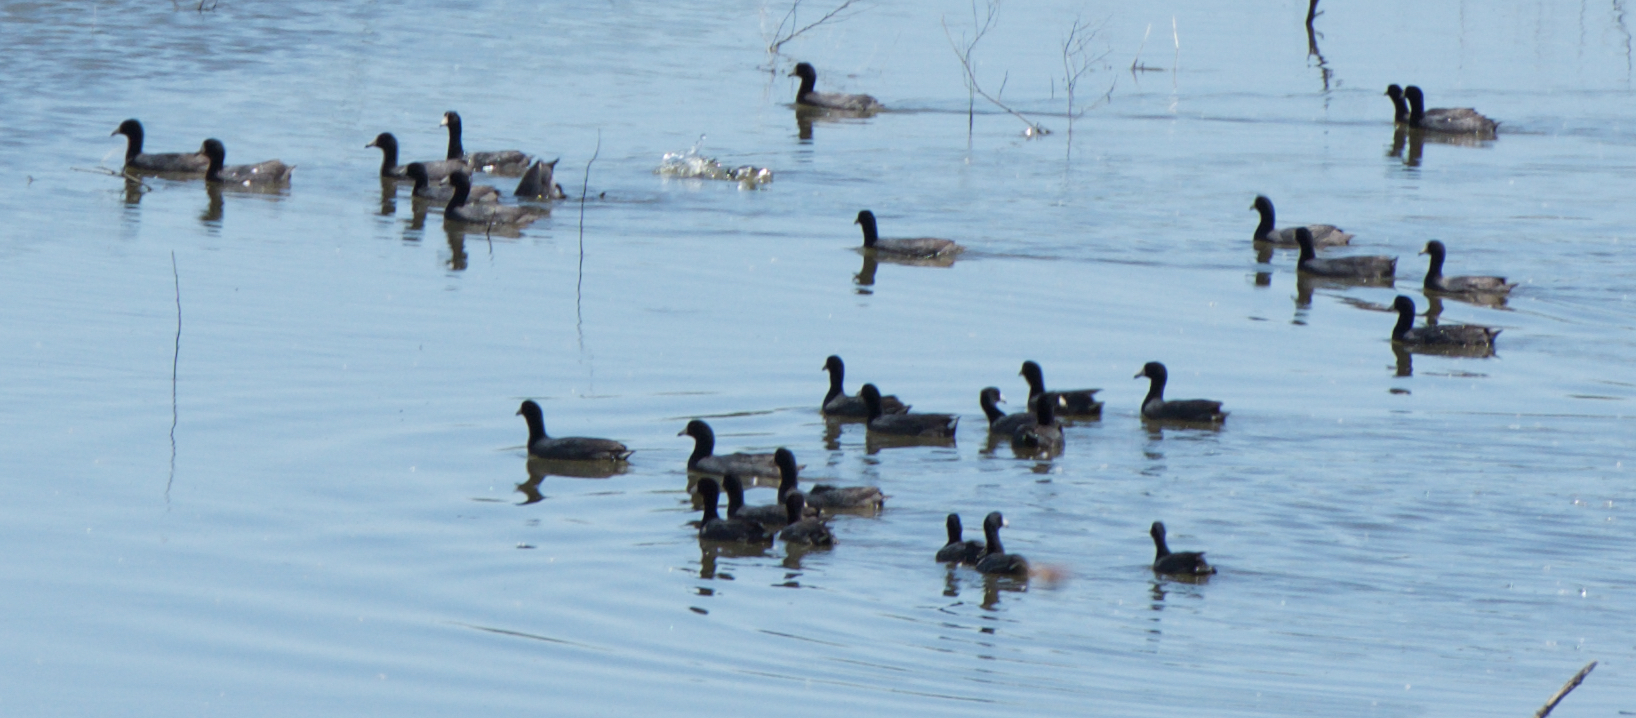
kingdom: Animalia
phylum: Chordata
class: Aves
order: Gruiformes
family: Rallidae
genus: Fulica
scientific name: Fulica americana
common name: American coot
